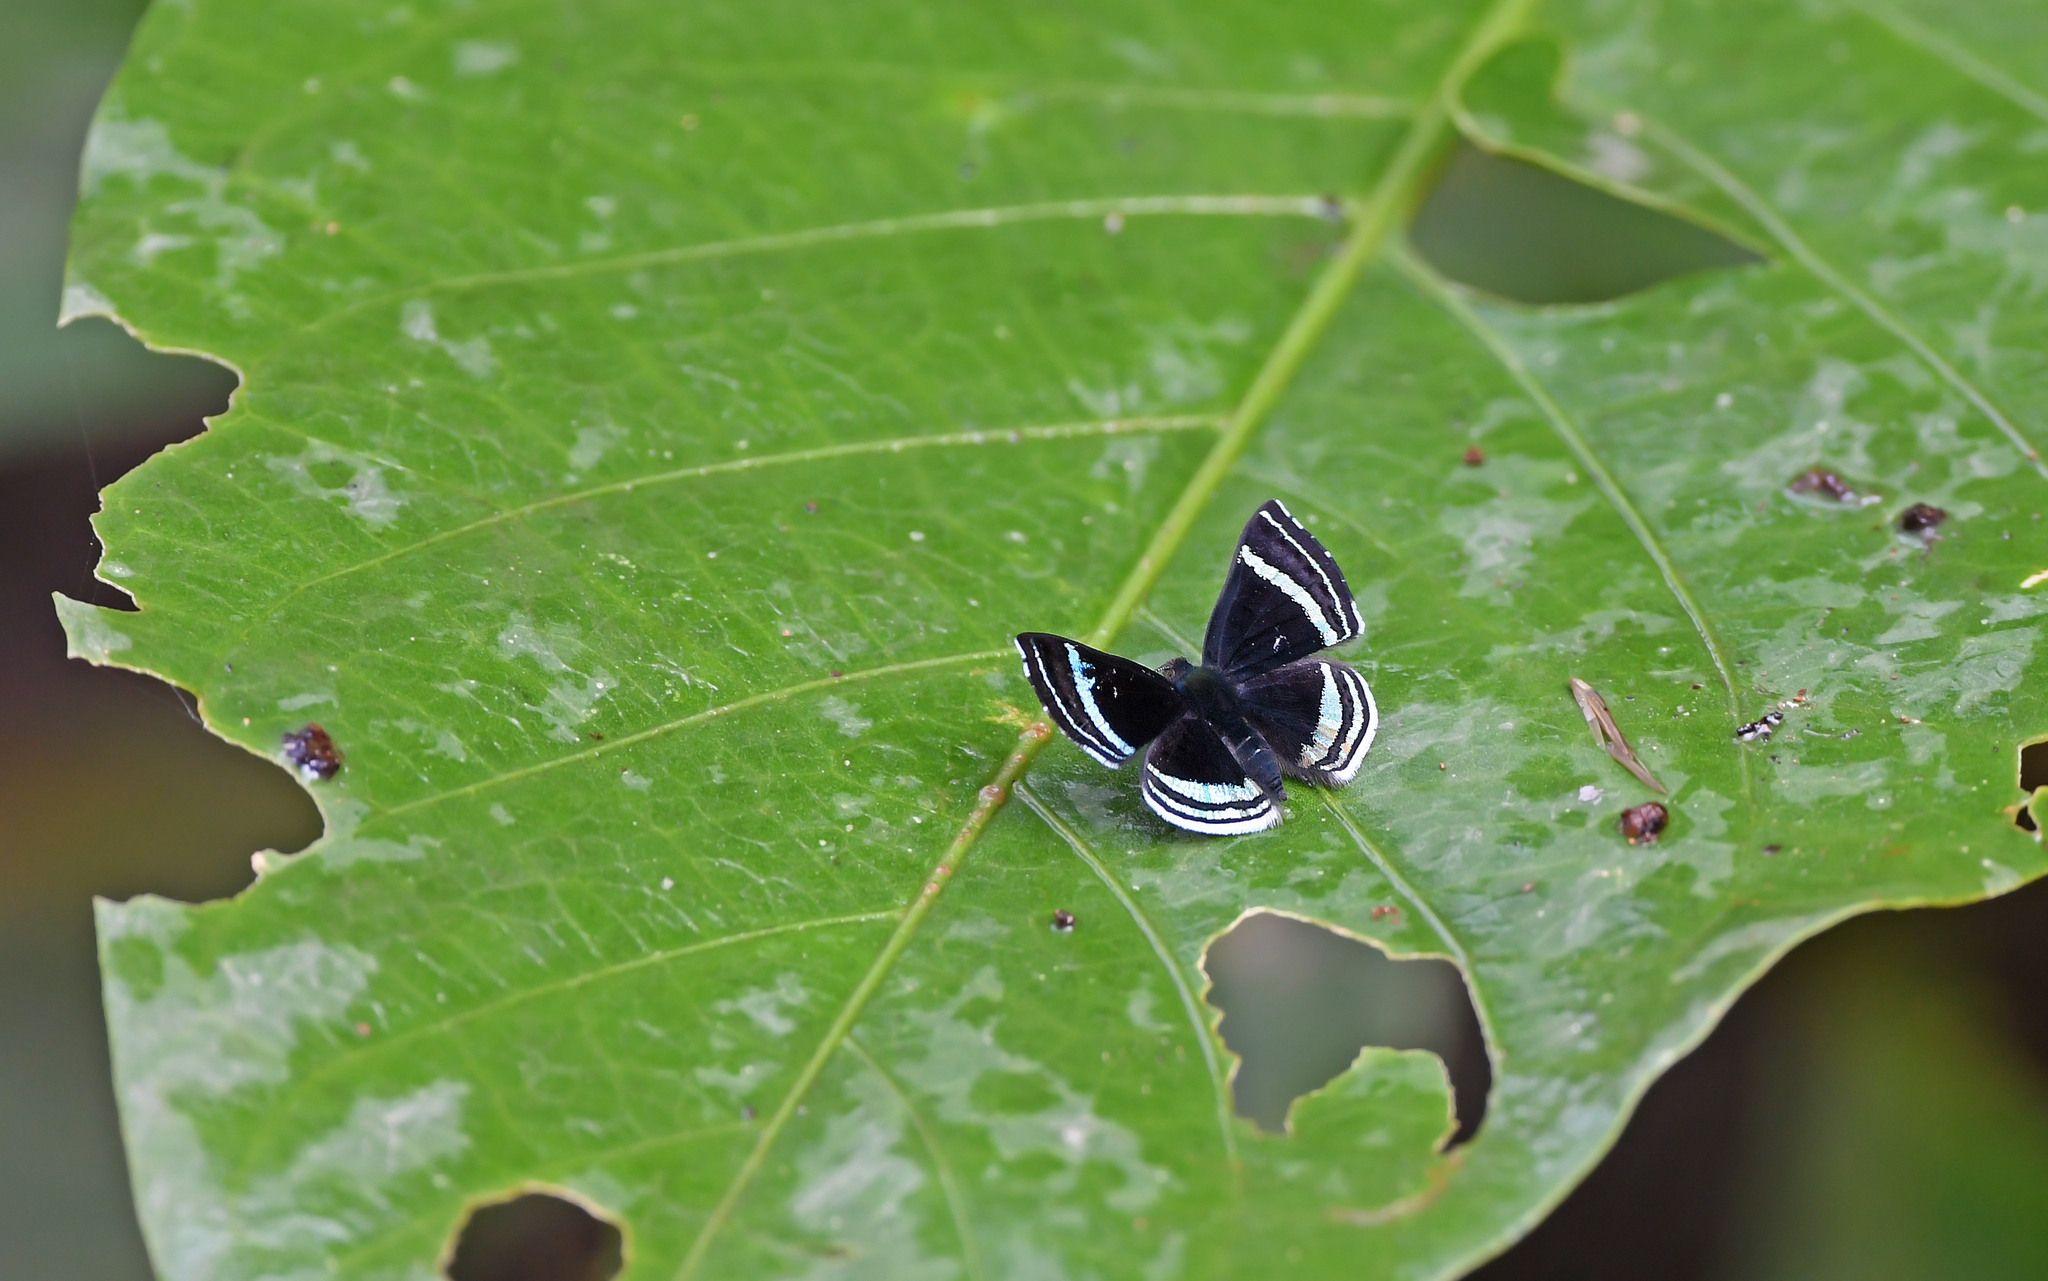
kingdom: Animalia
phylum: Arthropoda
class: Insecta
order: Lepidoptera
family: Riodinidae
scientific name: Riodinidae
